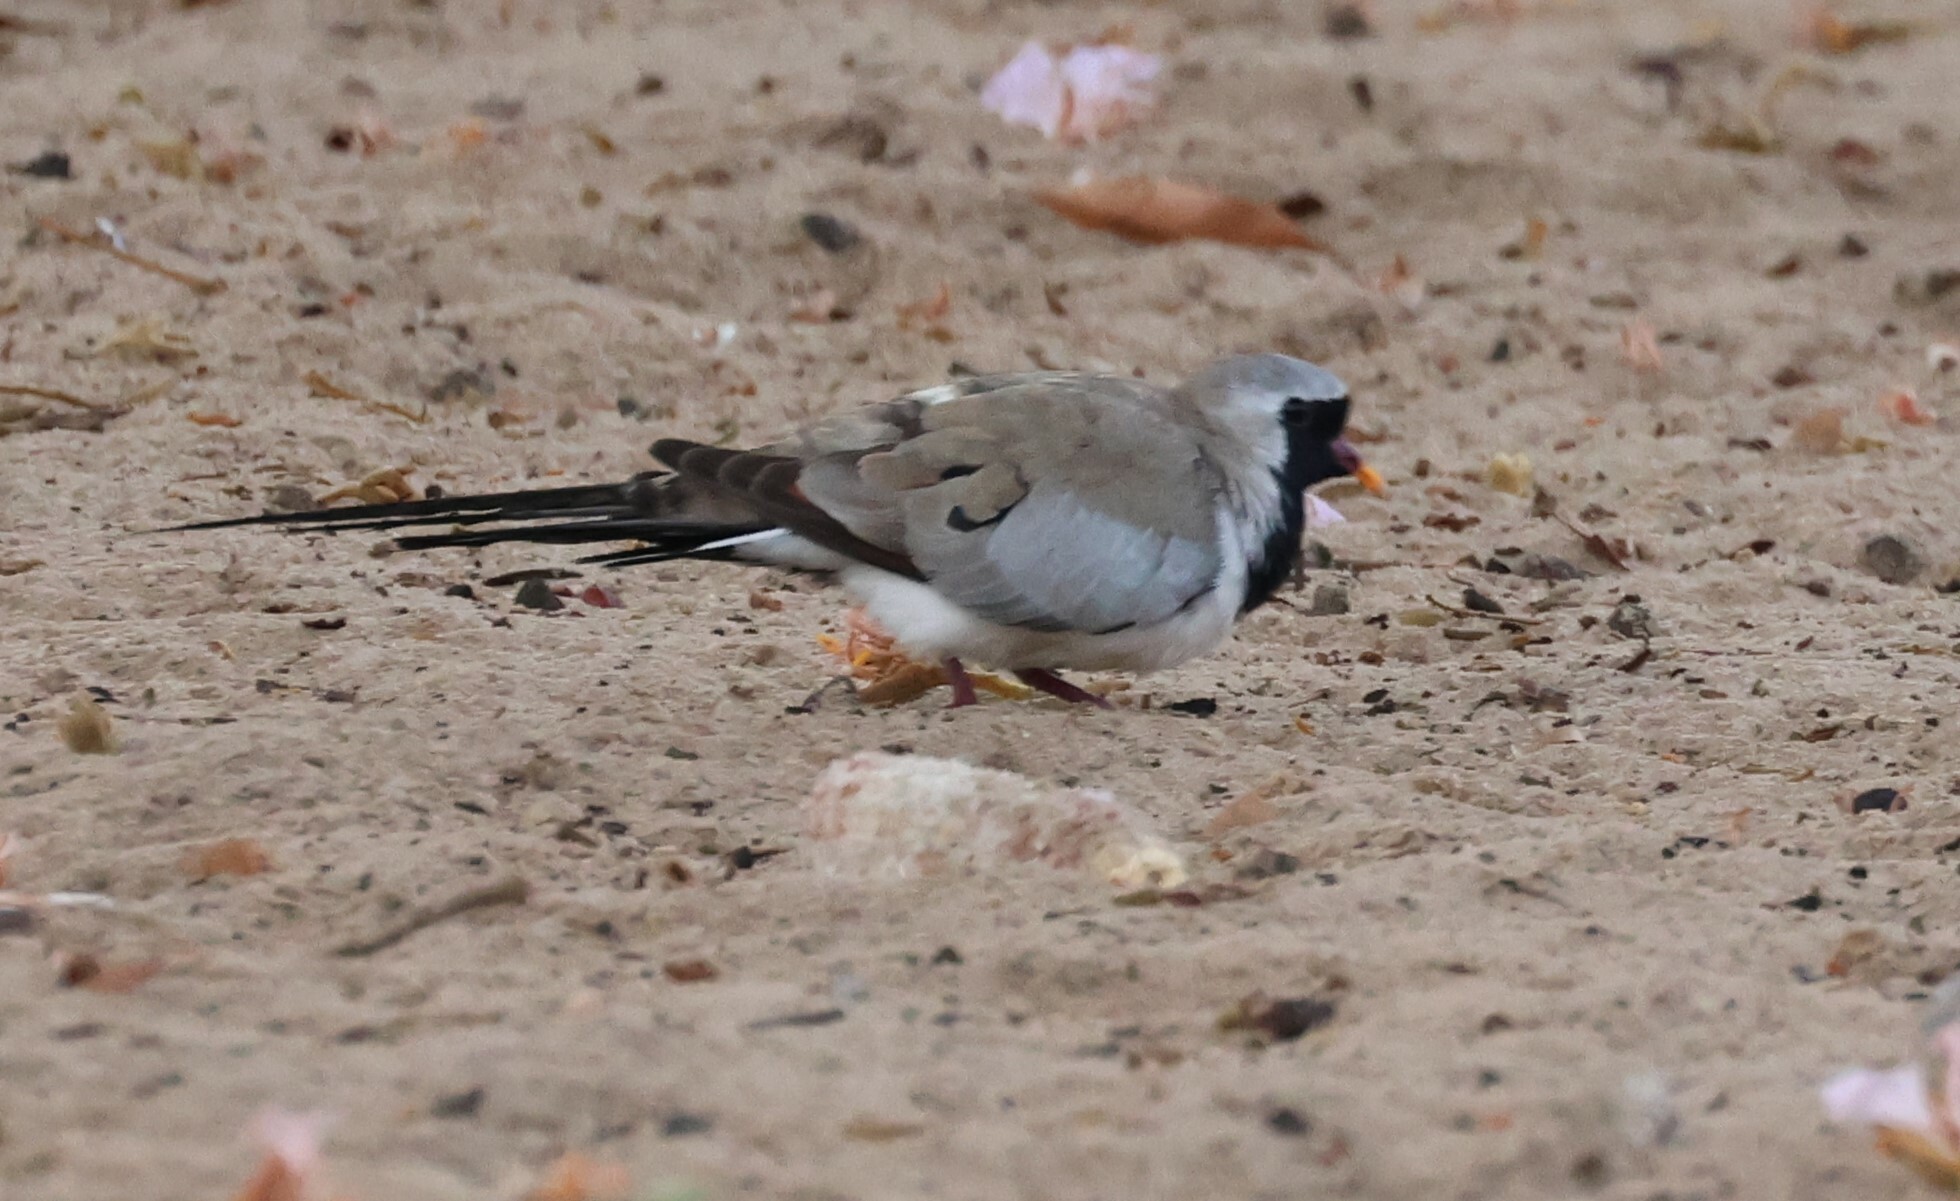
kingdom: Animalia
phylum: Chordata
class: Aves
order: Columbiformes
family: Columbidae
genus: Oena
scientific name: Oena capensis
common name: Namaqua dove
